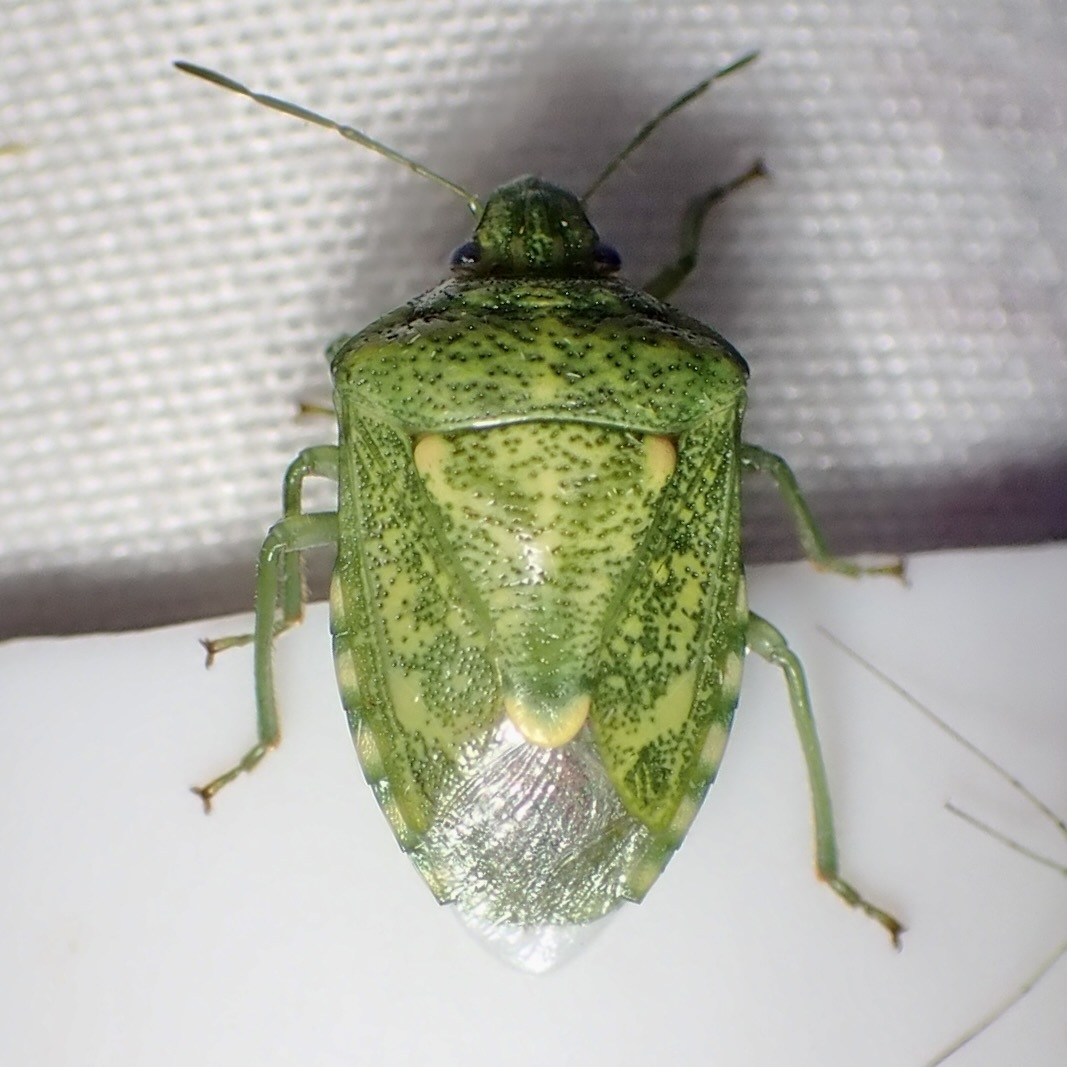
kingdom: Animalia
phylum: Arthropoda
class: Insecta
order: Hemiptera
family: Pentatomidae
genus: Banasa
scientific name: Banasa euchlora
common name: Cedar berry bug
